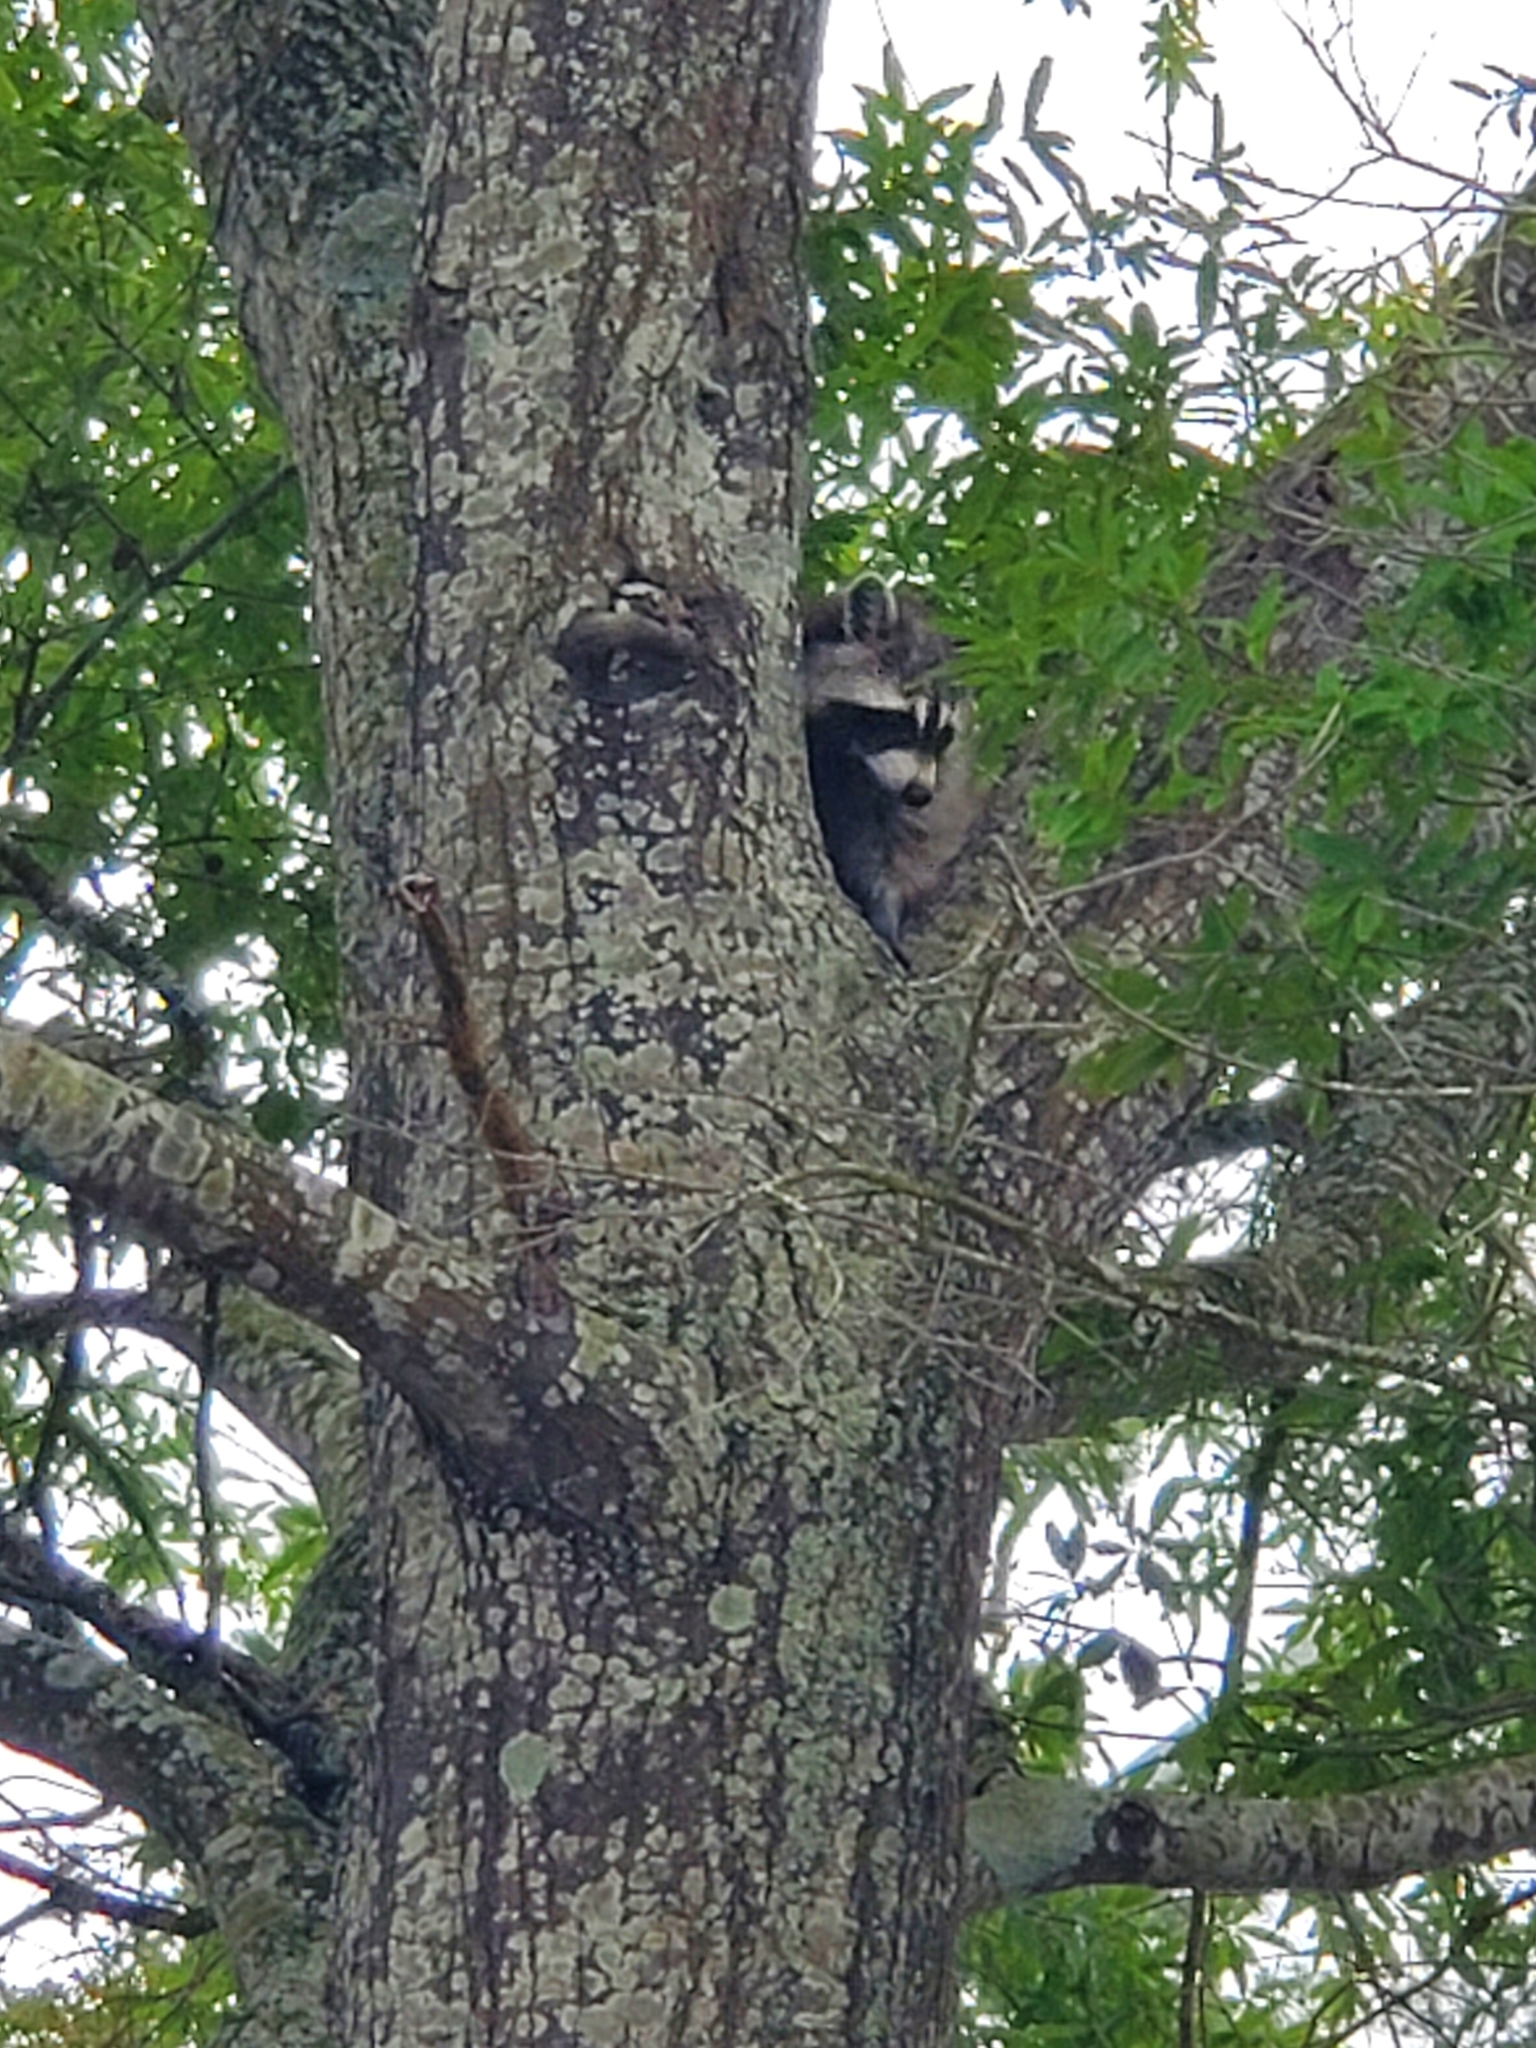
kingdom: Animalia
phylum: Chordata
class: Mammalia
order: Carnivora
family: Procyonidae
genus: Procyon
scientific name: Procyon lotor
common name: Raccoon
